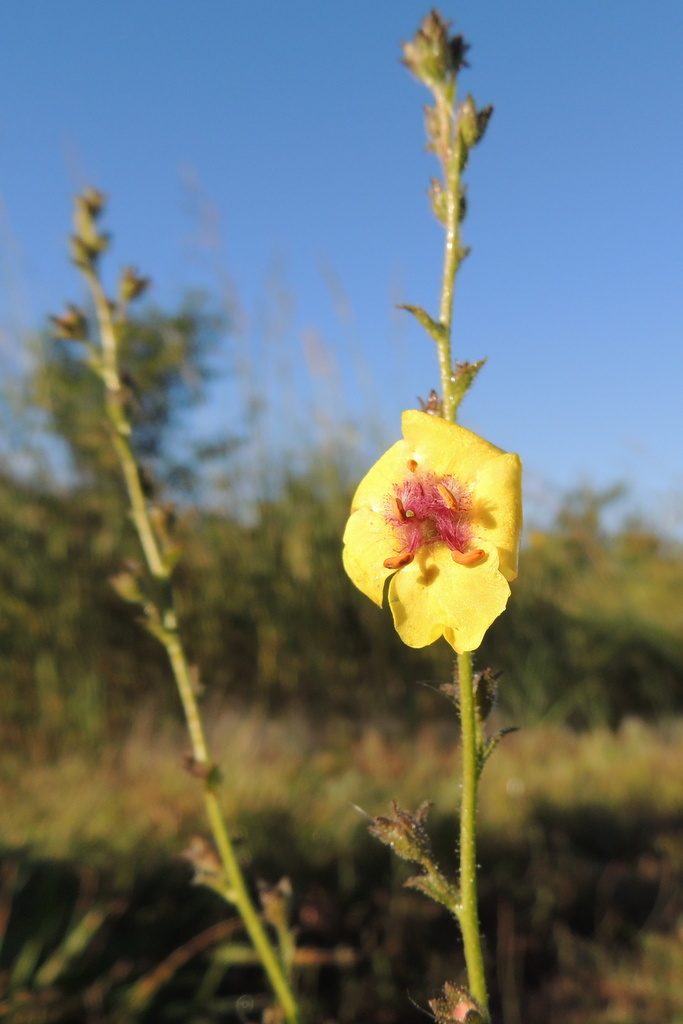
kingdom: Plantae
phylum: Tracheophyta
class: Magnoliopsida
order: Lamiales
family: Scrophulariaceae
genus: Verbascum
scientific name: Verbascum blattaria
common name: Moth mullein
